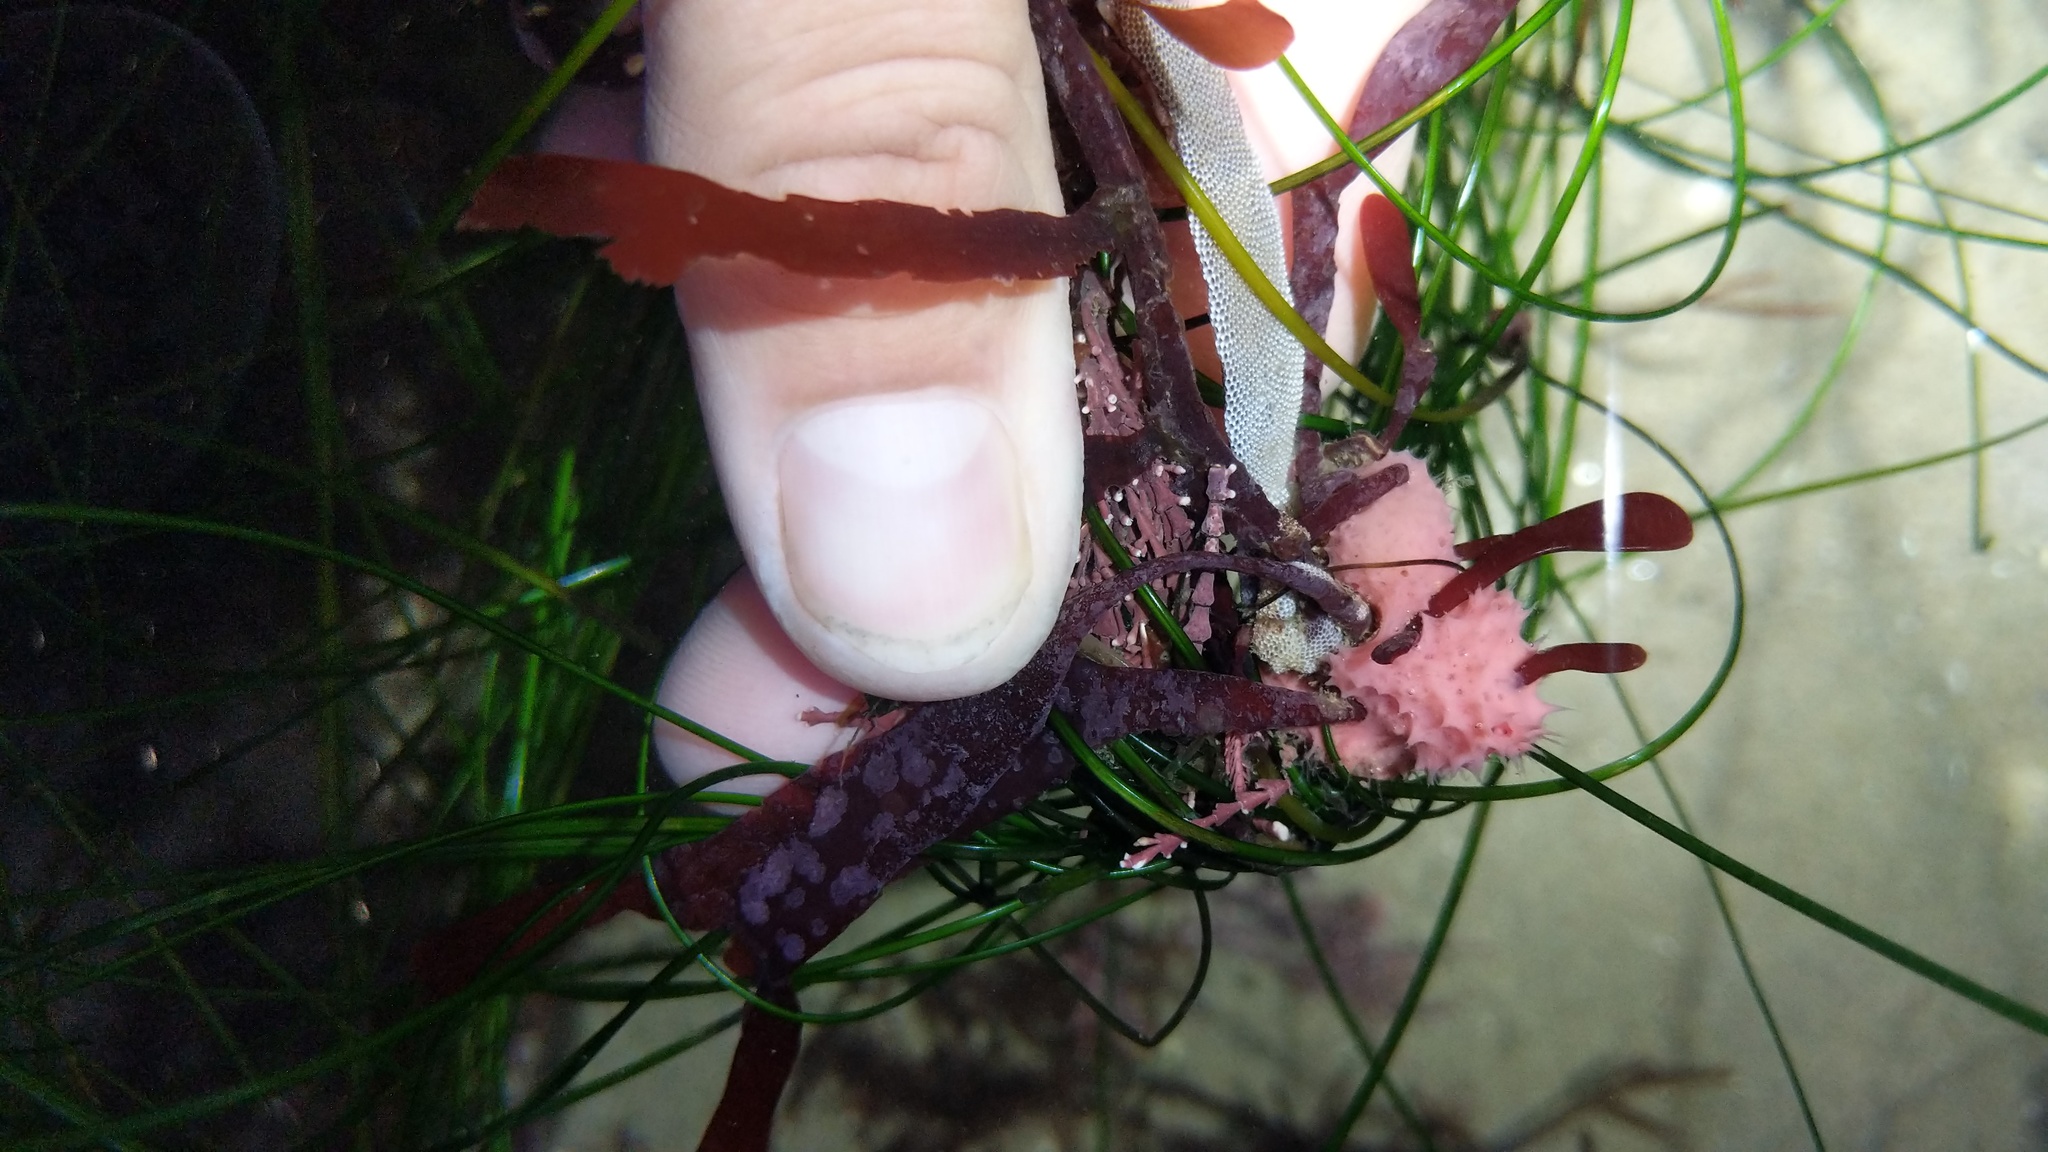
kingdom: Animalia
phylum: Porifera
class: Demospongiae
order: Dendroceratida
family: Darwinellidae
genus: Aplysilla
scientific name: Aplysilla glacialis
